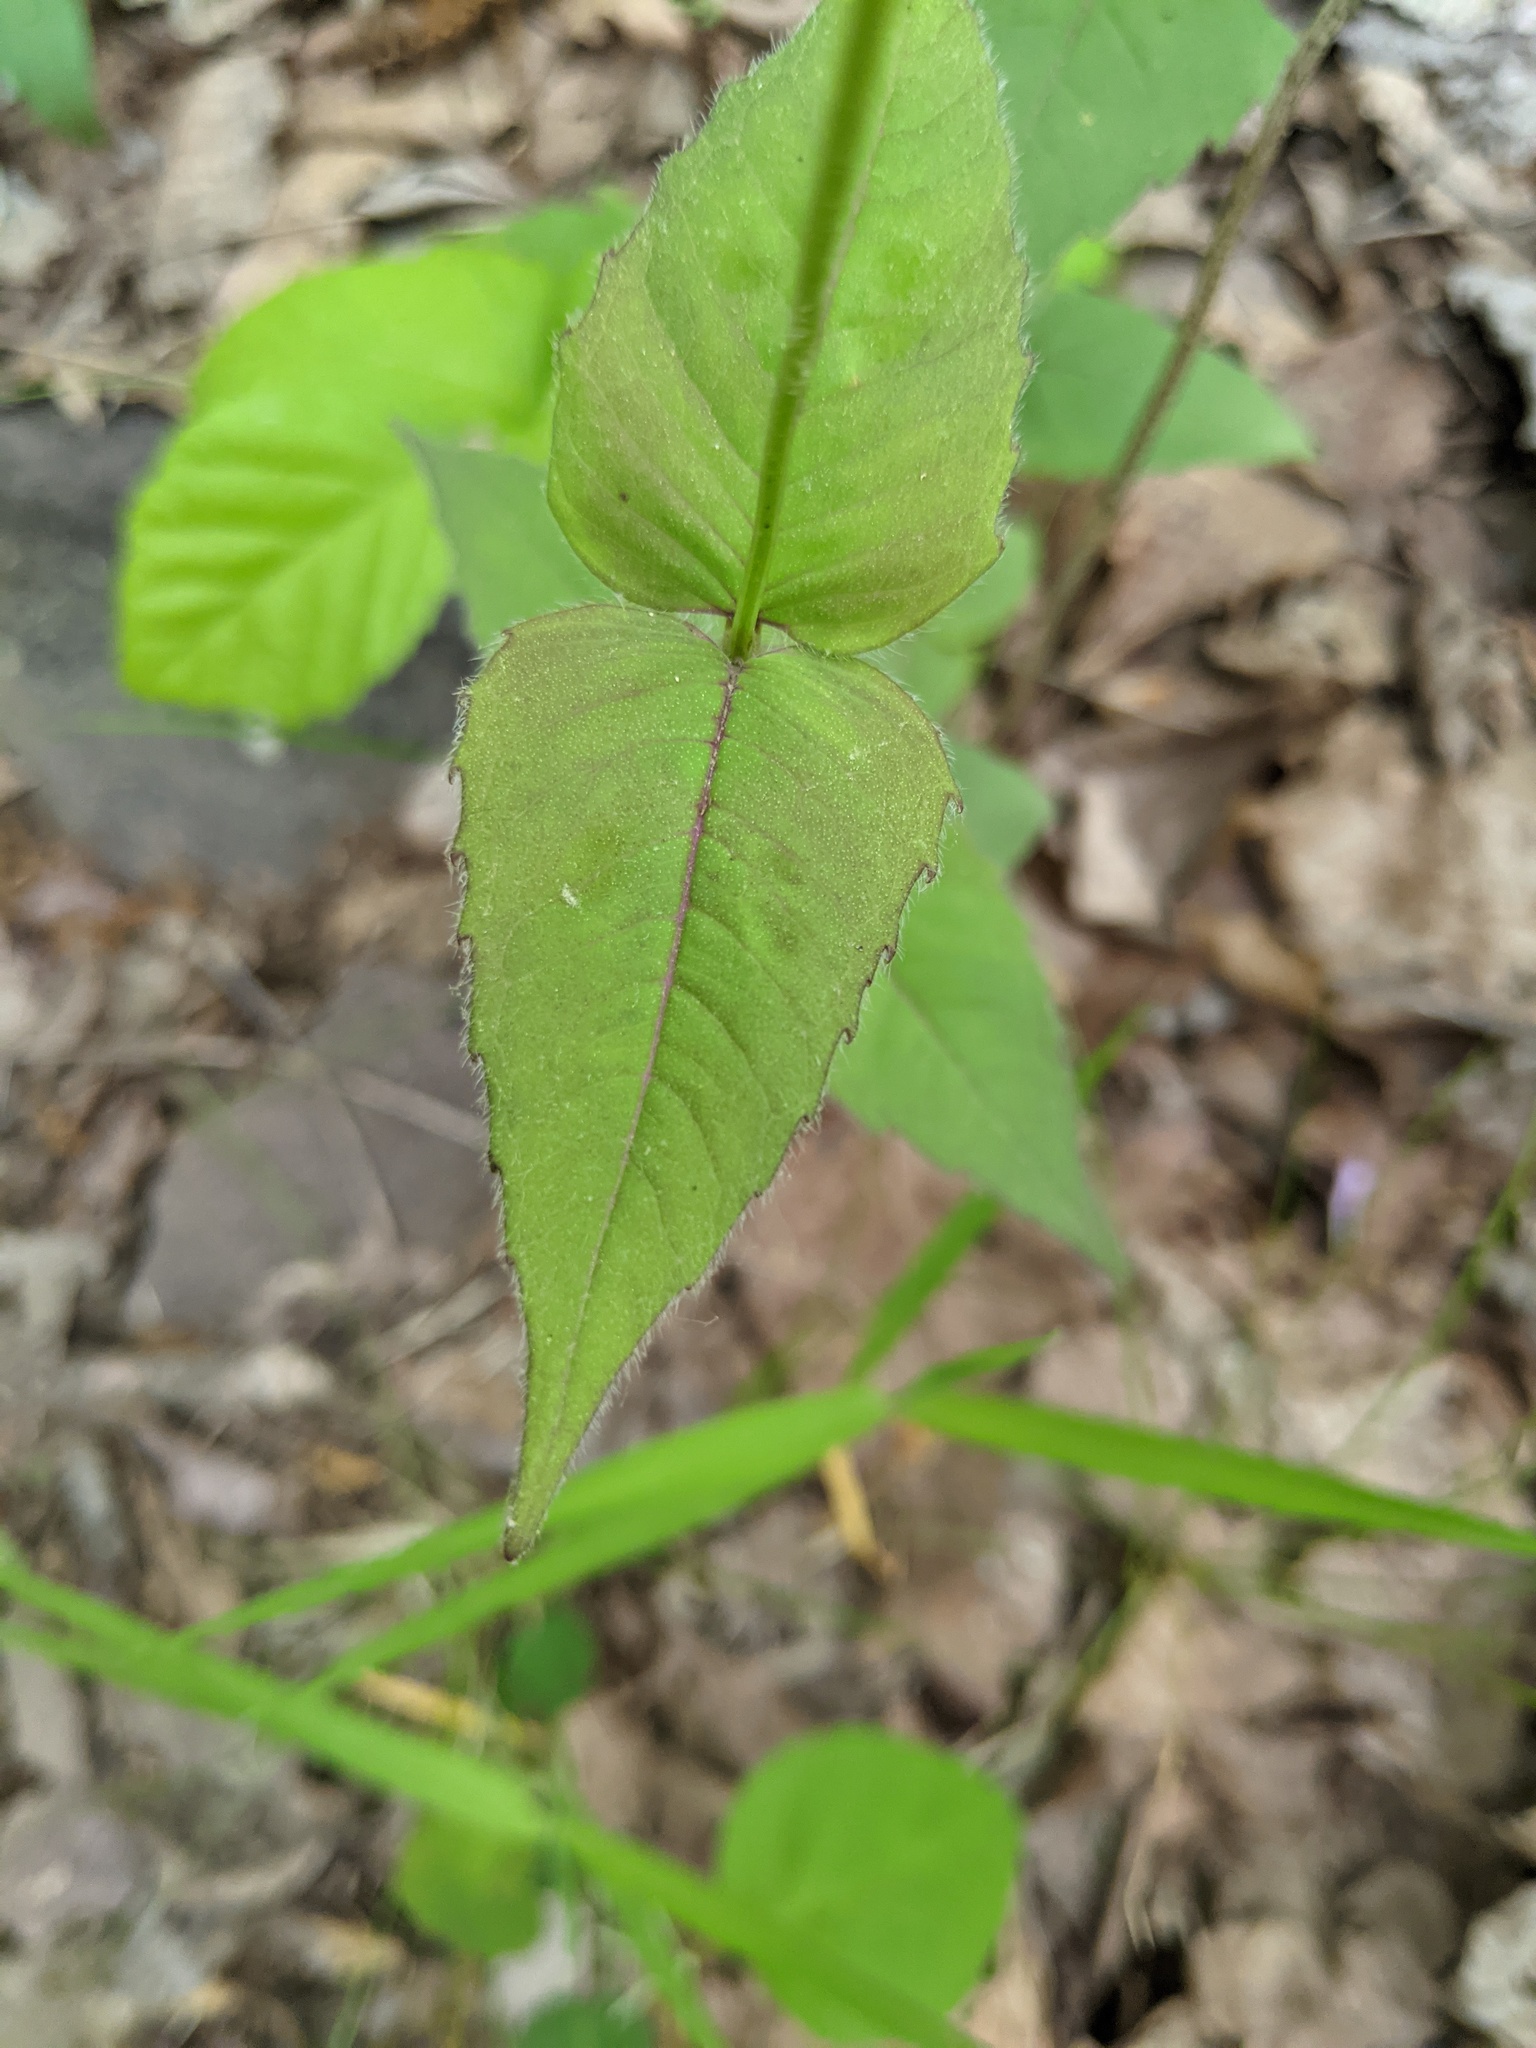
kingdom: Plantae
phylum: Tracheophyta
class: Magnoliopsida
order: Lamiales
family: Lamiaceae
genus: Monarda
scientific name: Monarda bradburiana
